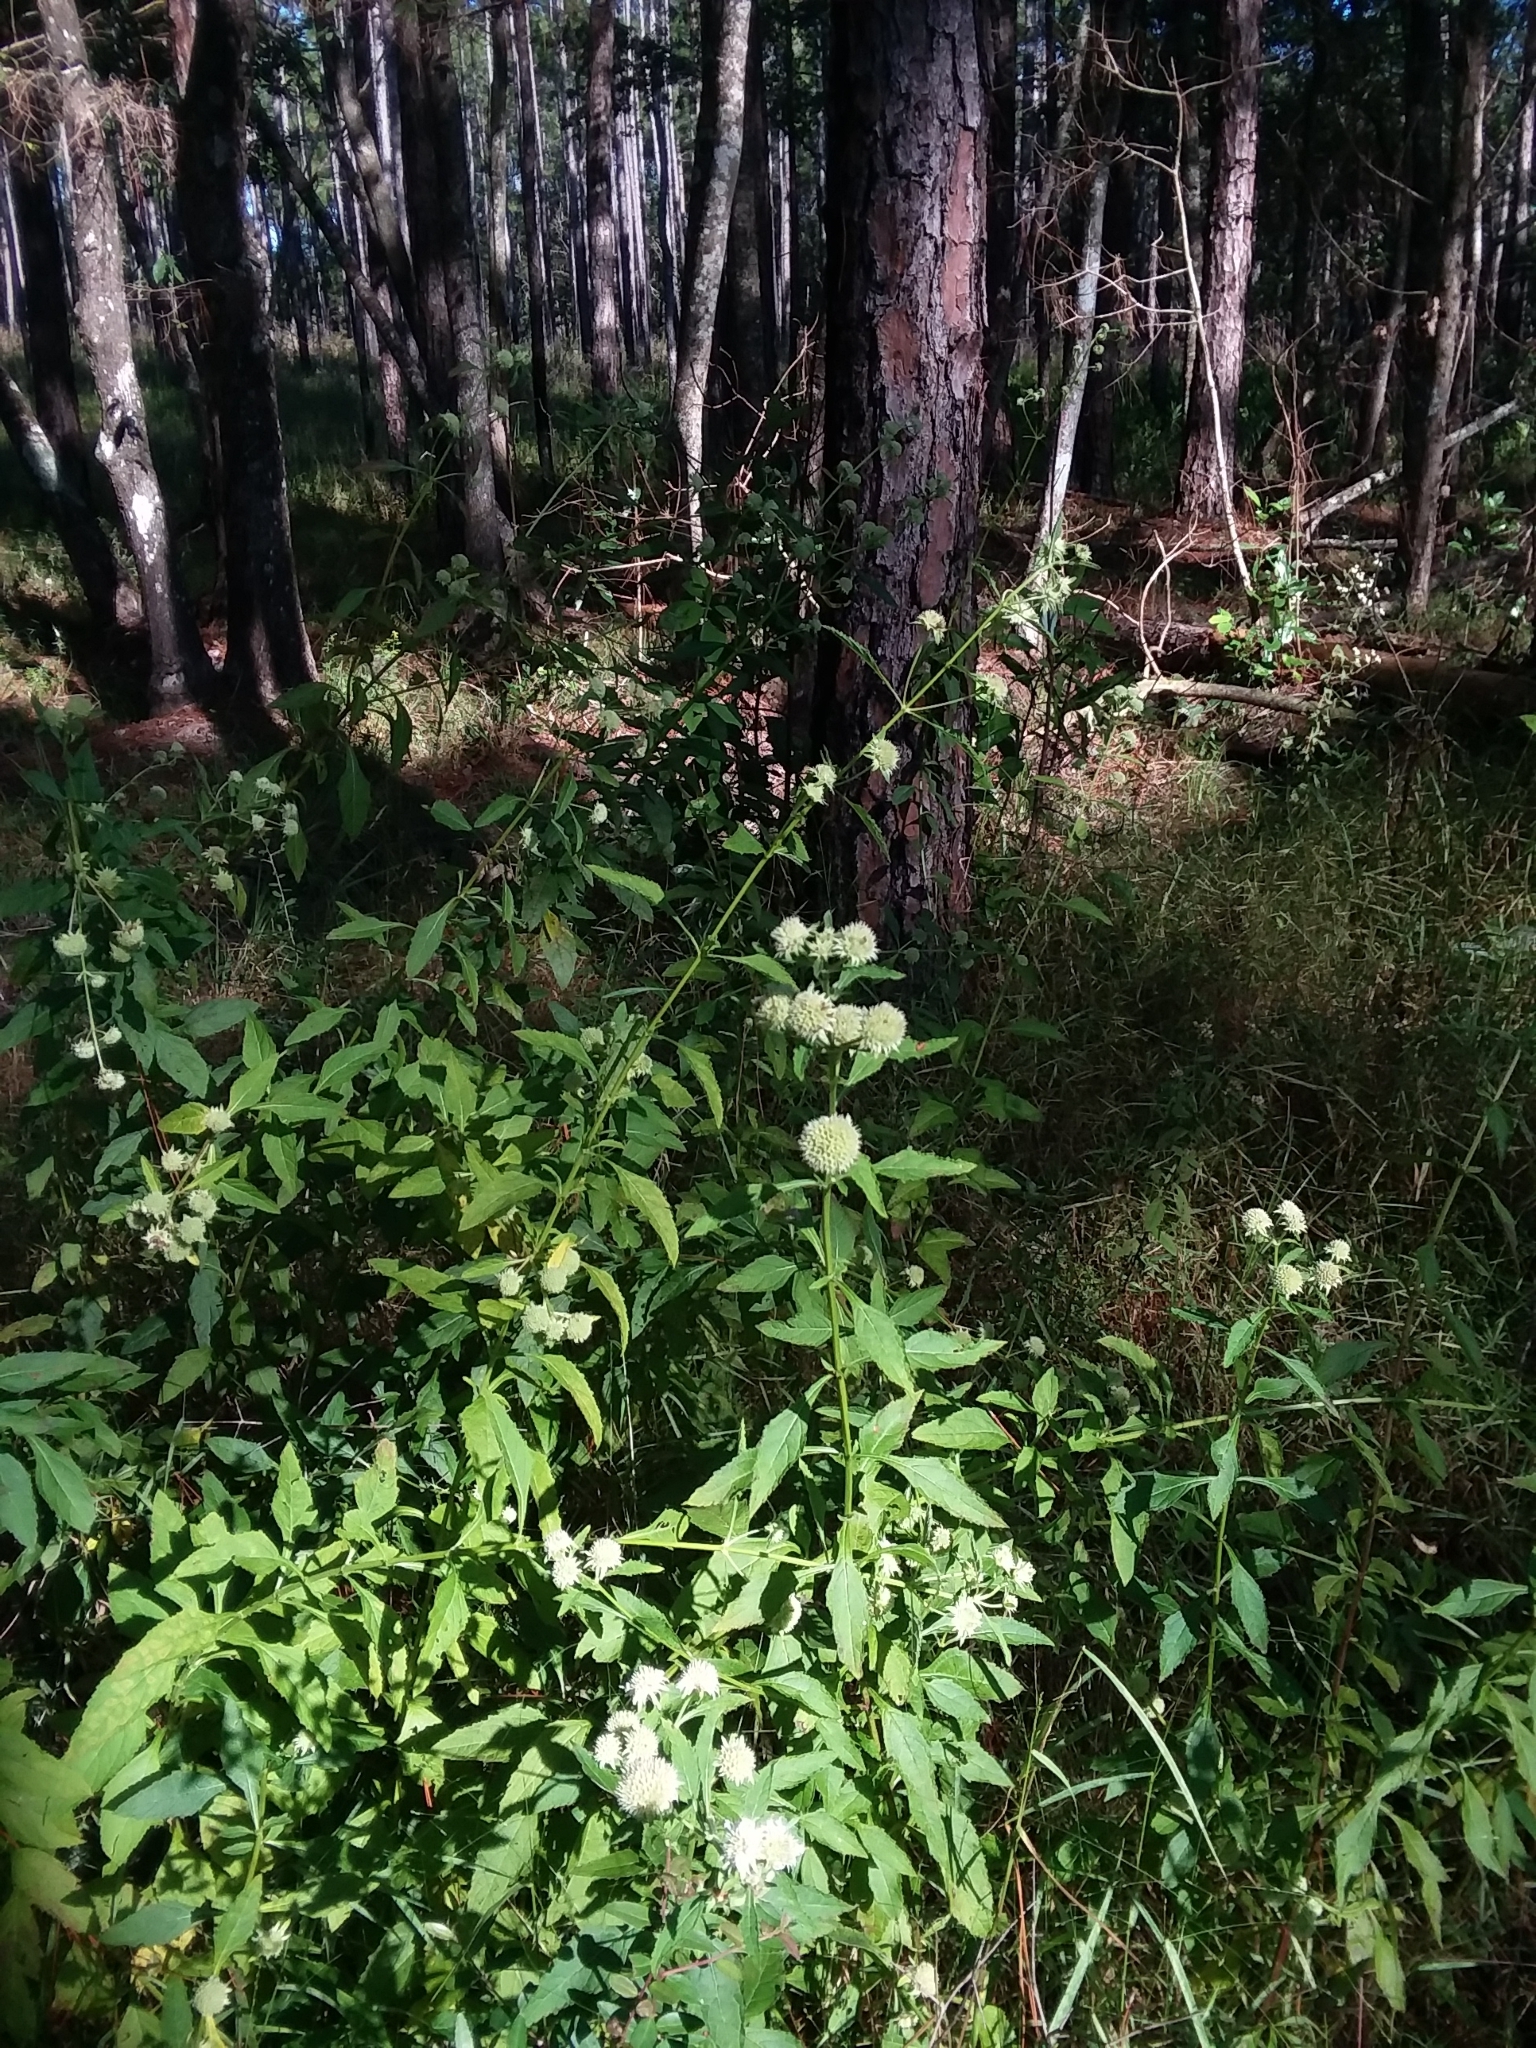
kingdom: Plantae
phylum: Tracheophyta
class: Magnoliopsida
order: Lamiales
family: Lamiaceae
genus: Hyptis
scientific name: Hyptis alata
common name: Cluster bush-mint
